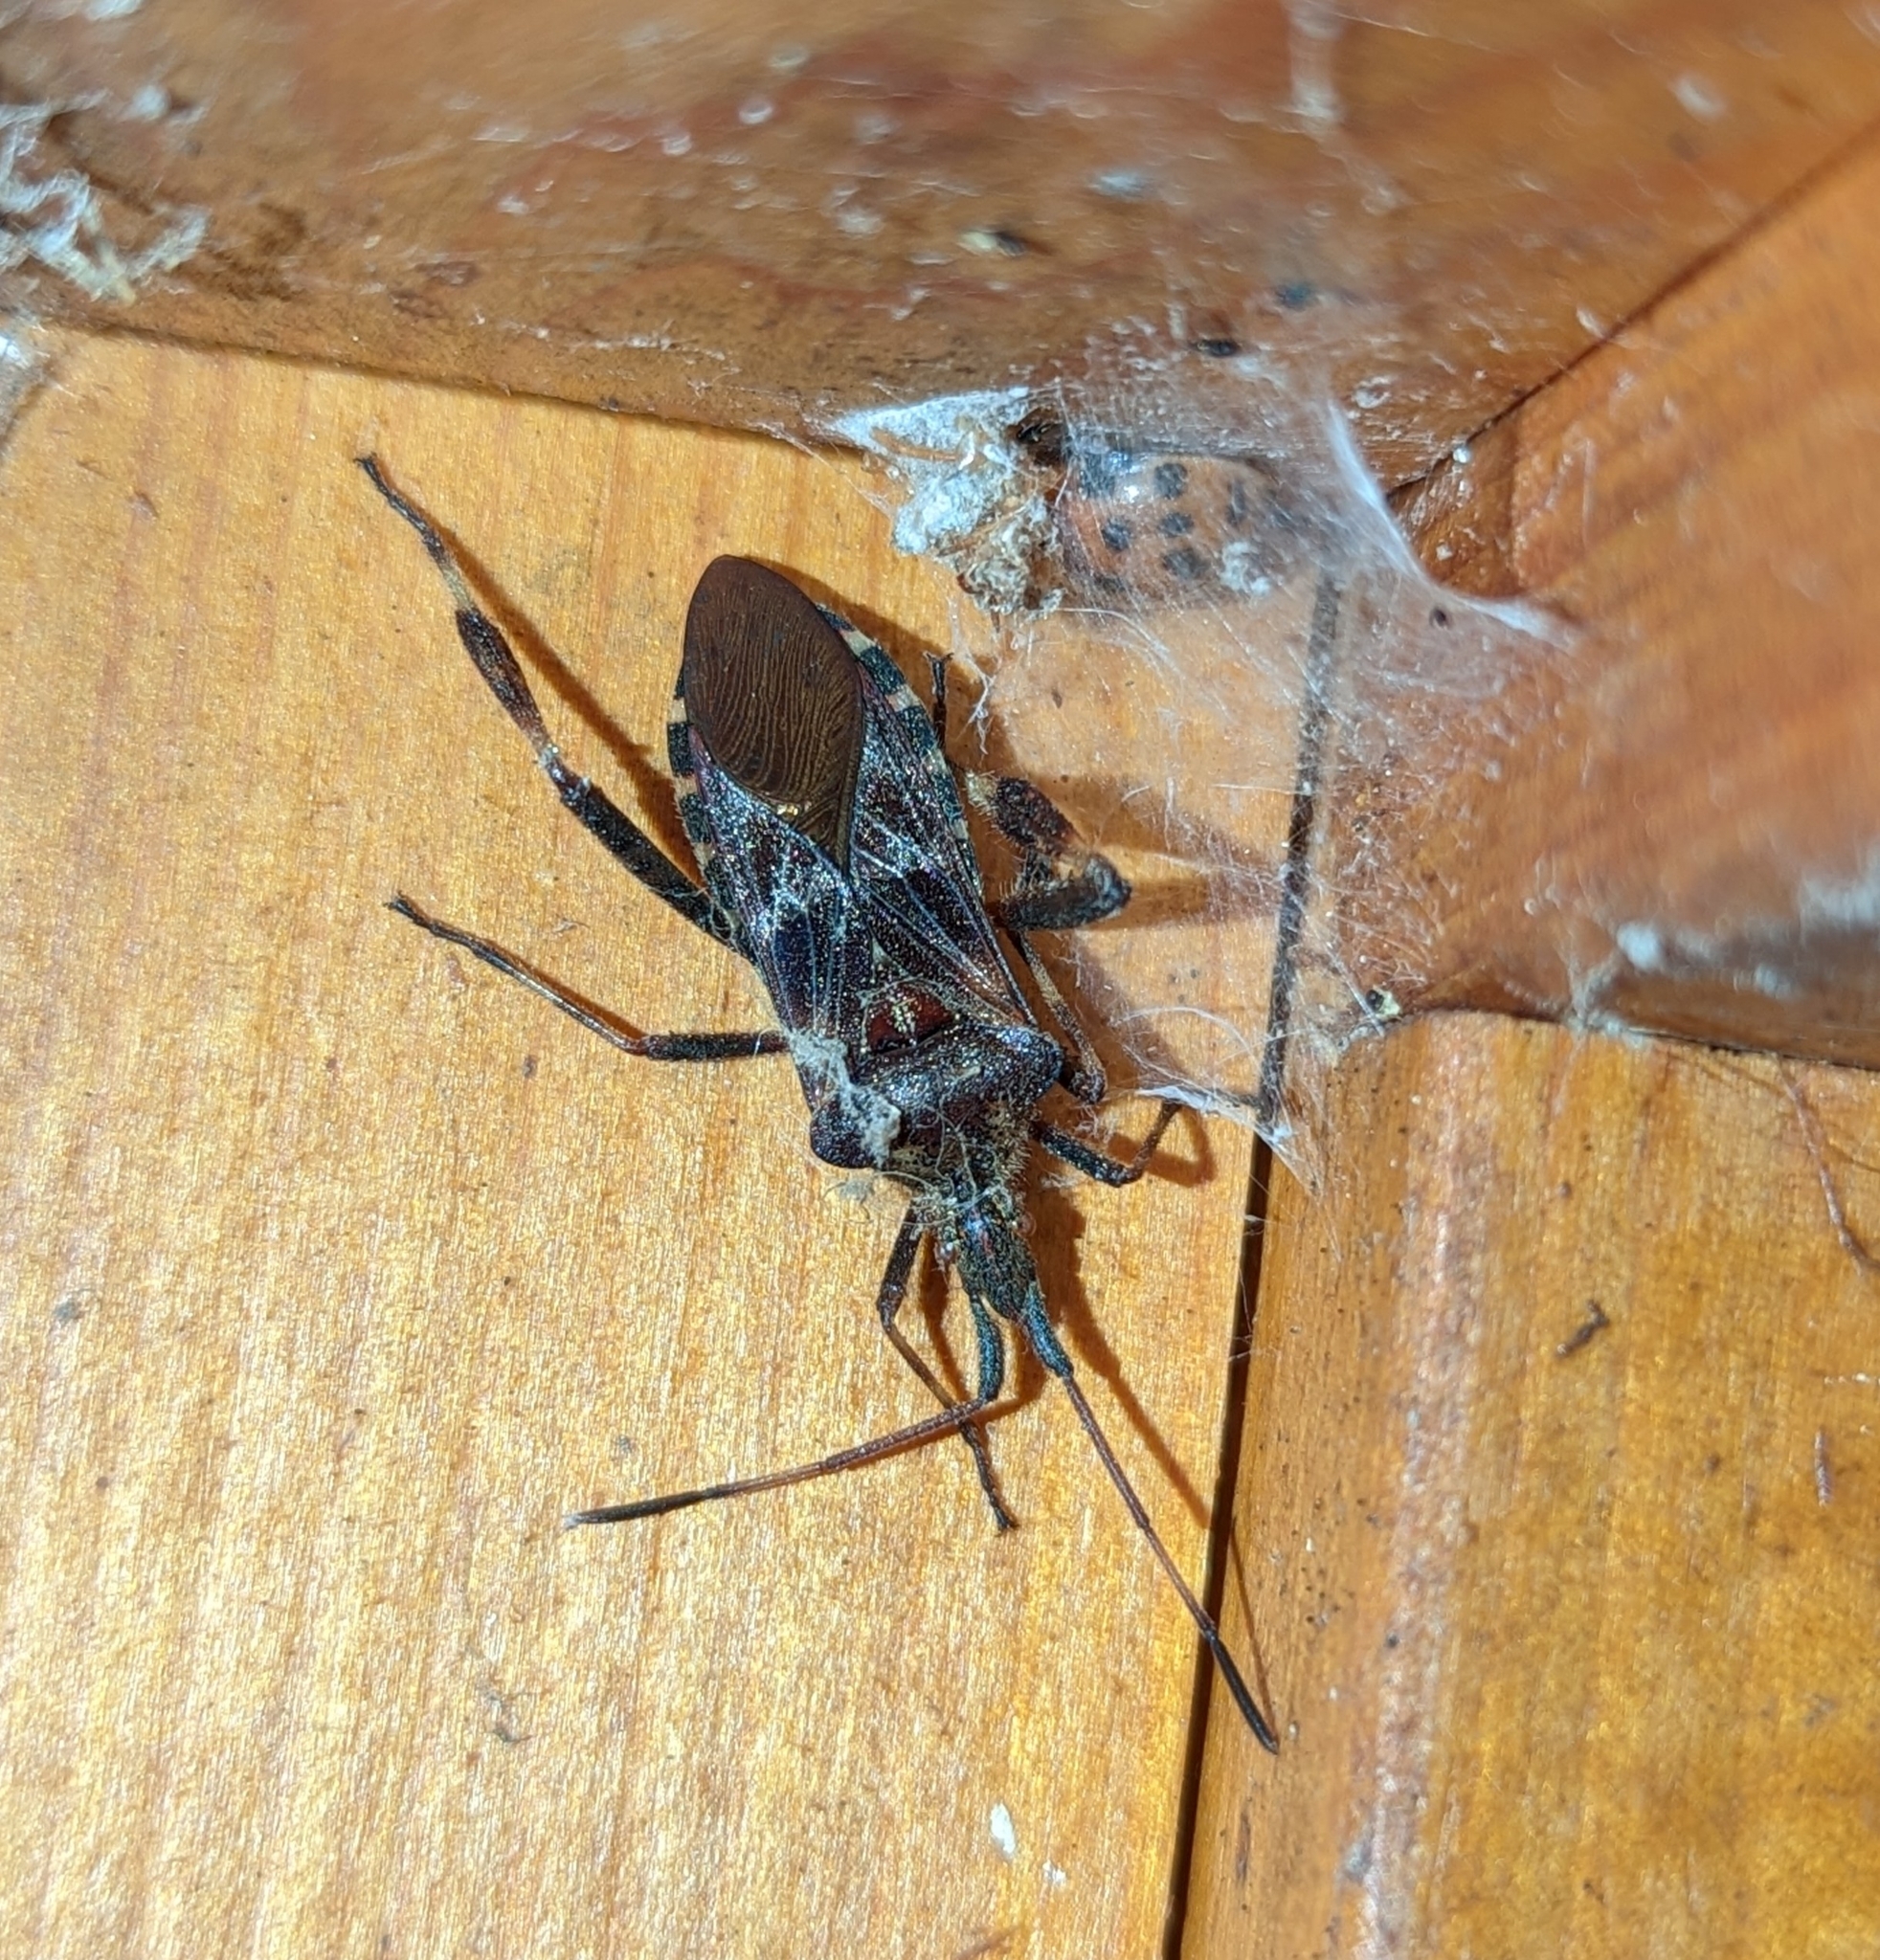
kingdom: Animalia
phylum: Arthropoda
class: Insecta
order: Hemiptera
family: Coreidae
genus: Leptoglossus
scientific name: Leptoglossus occidentalis
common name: Western conifer-seed bug
